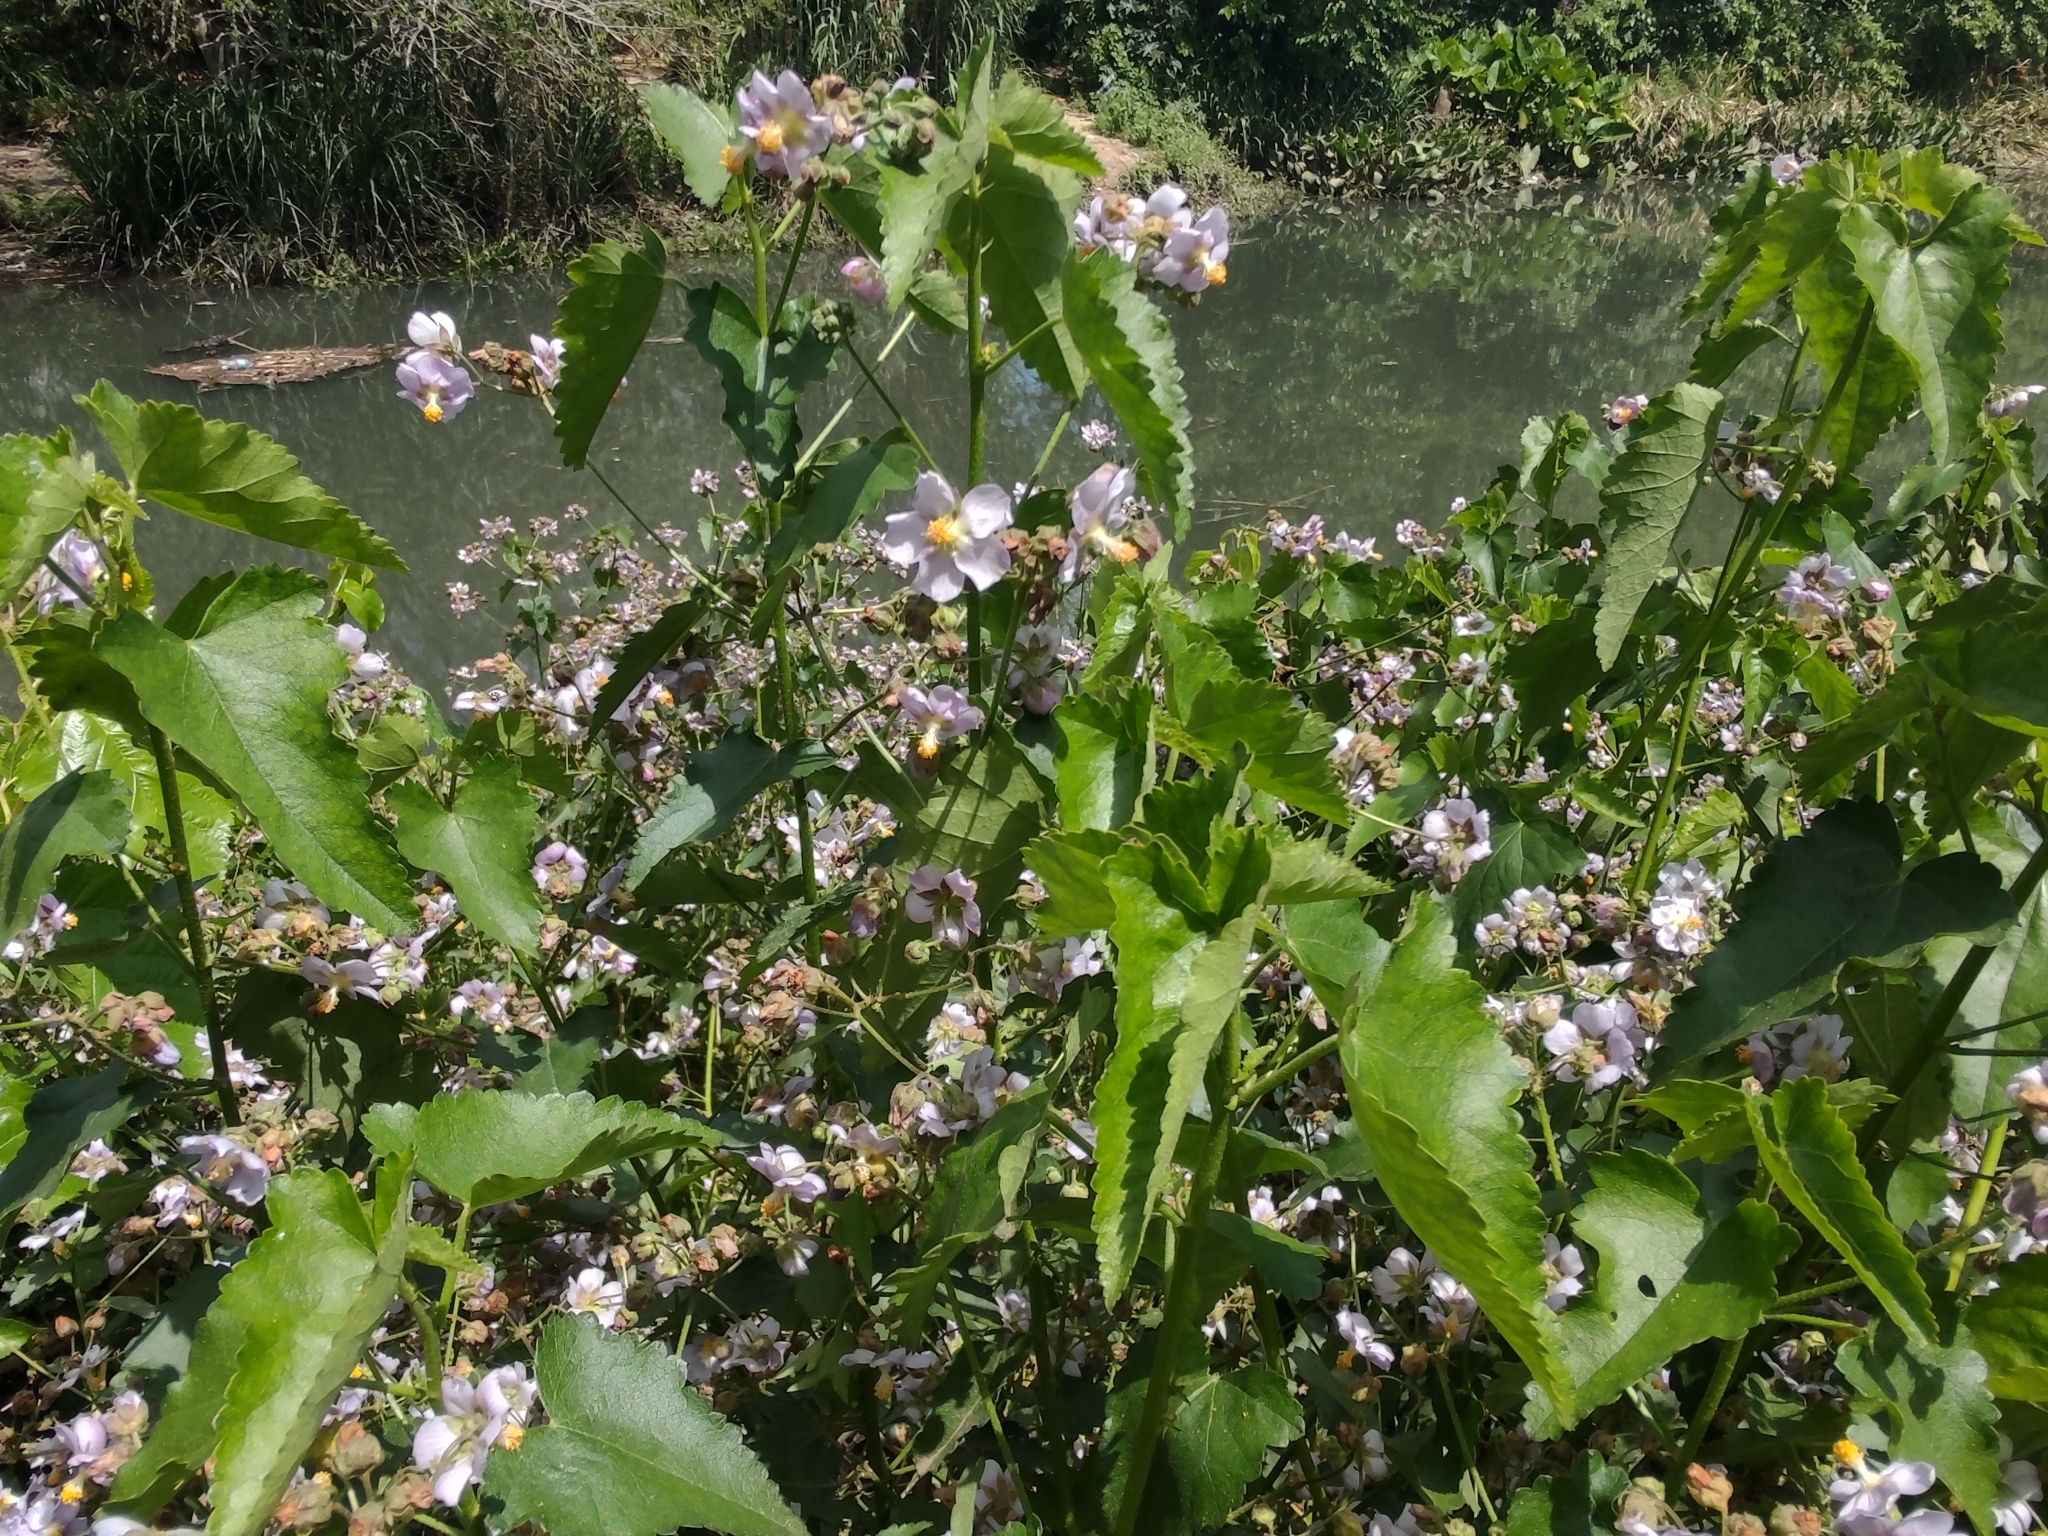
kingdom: Plantae
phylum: Tracheophyta
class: Magnoliopsida
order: Malvales
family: Malvaceae
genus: Monteiroa
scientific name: Monteiroa glomerata
